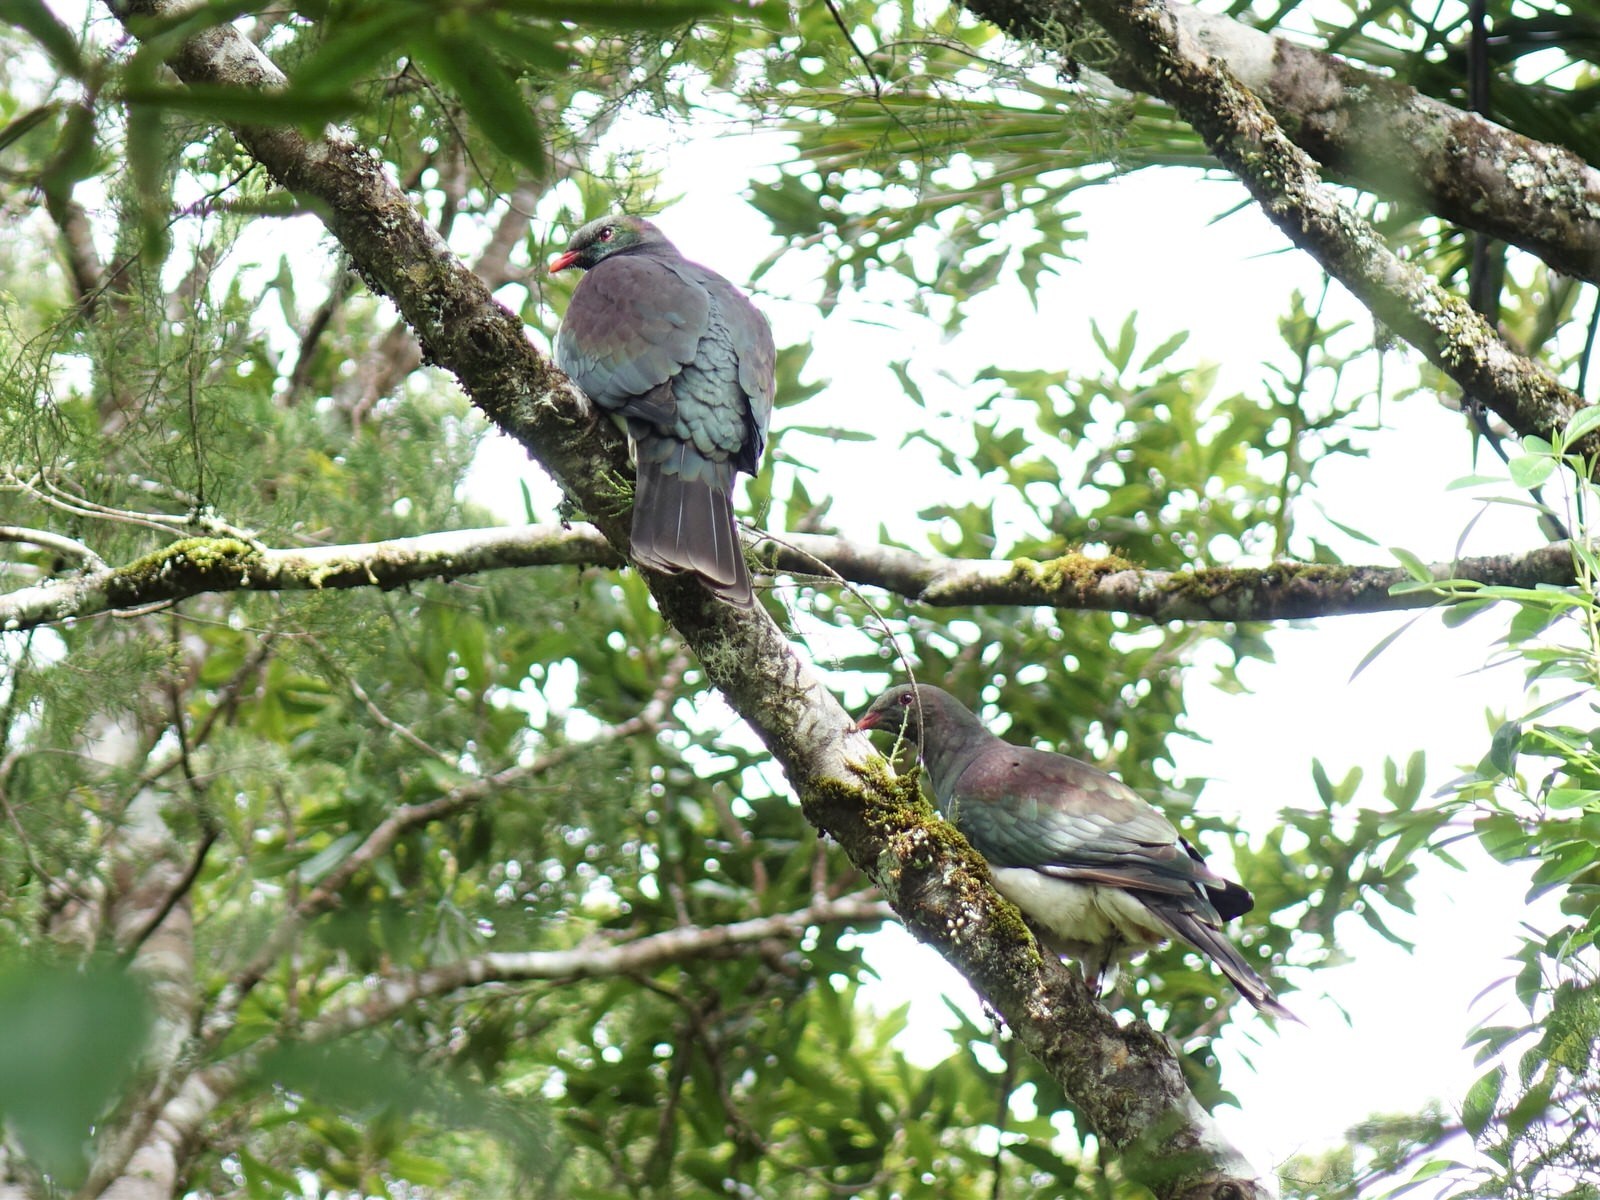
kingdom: Animalia
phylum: Chordata
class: Aves
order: Columbiformes
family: Columbidae
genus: Hemiphaga
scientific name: Hemiphaga novaeseelandiae
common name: New zealand pigeon
